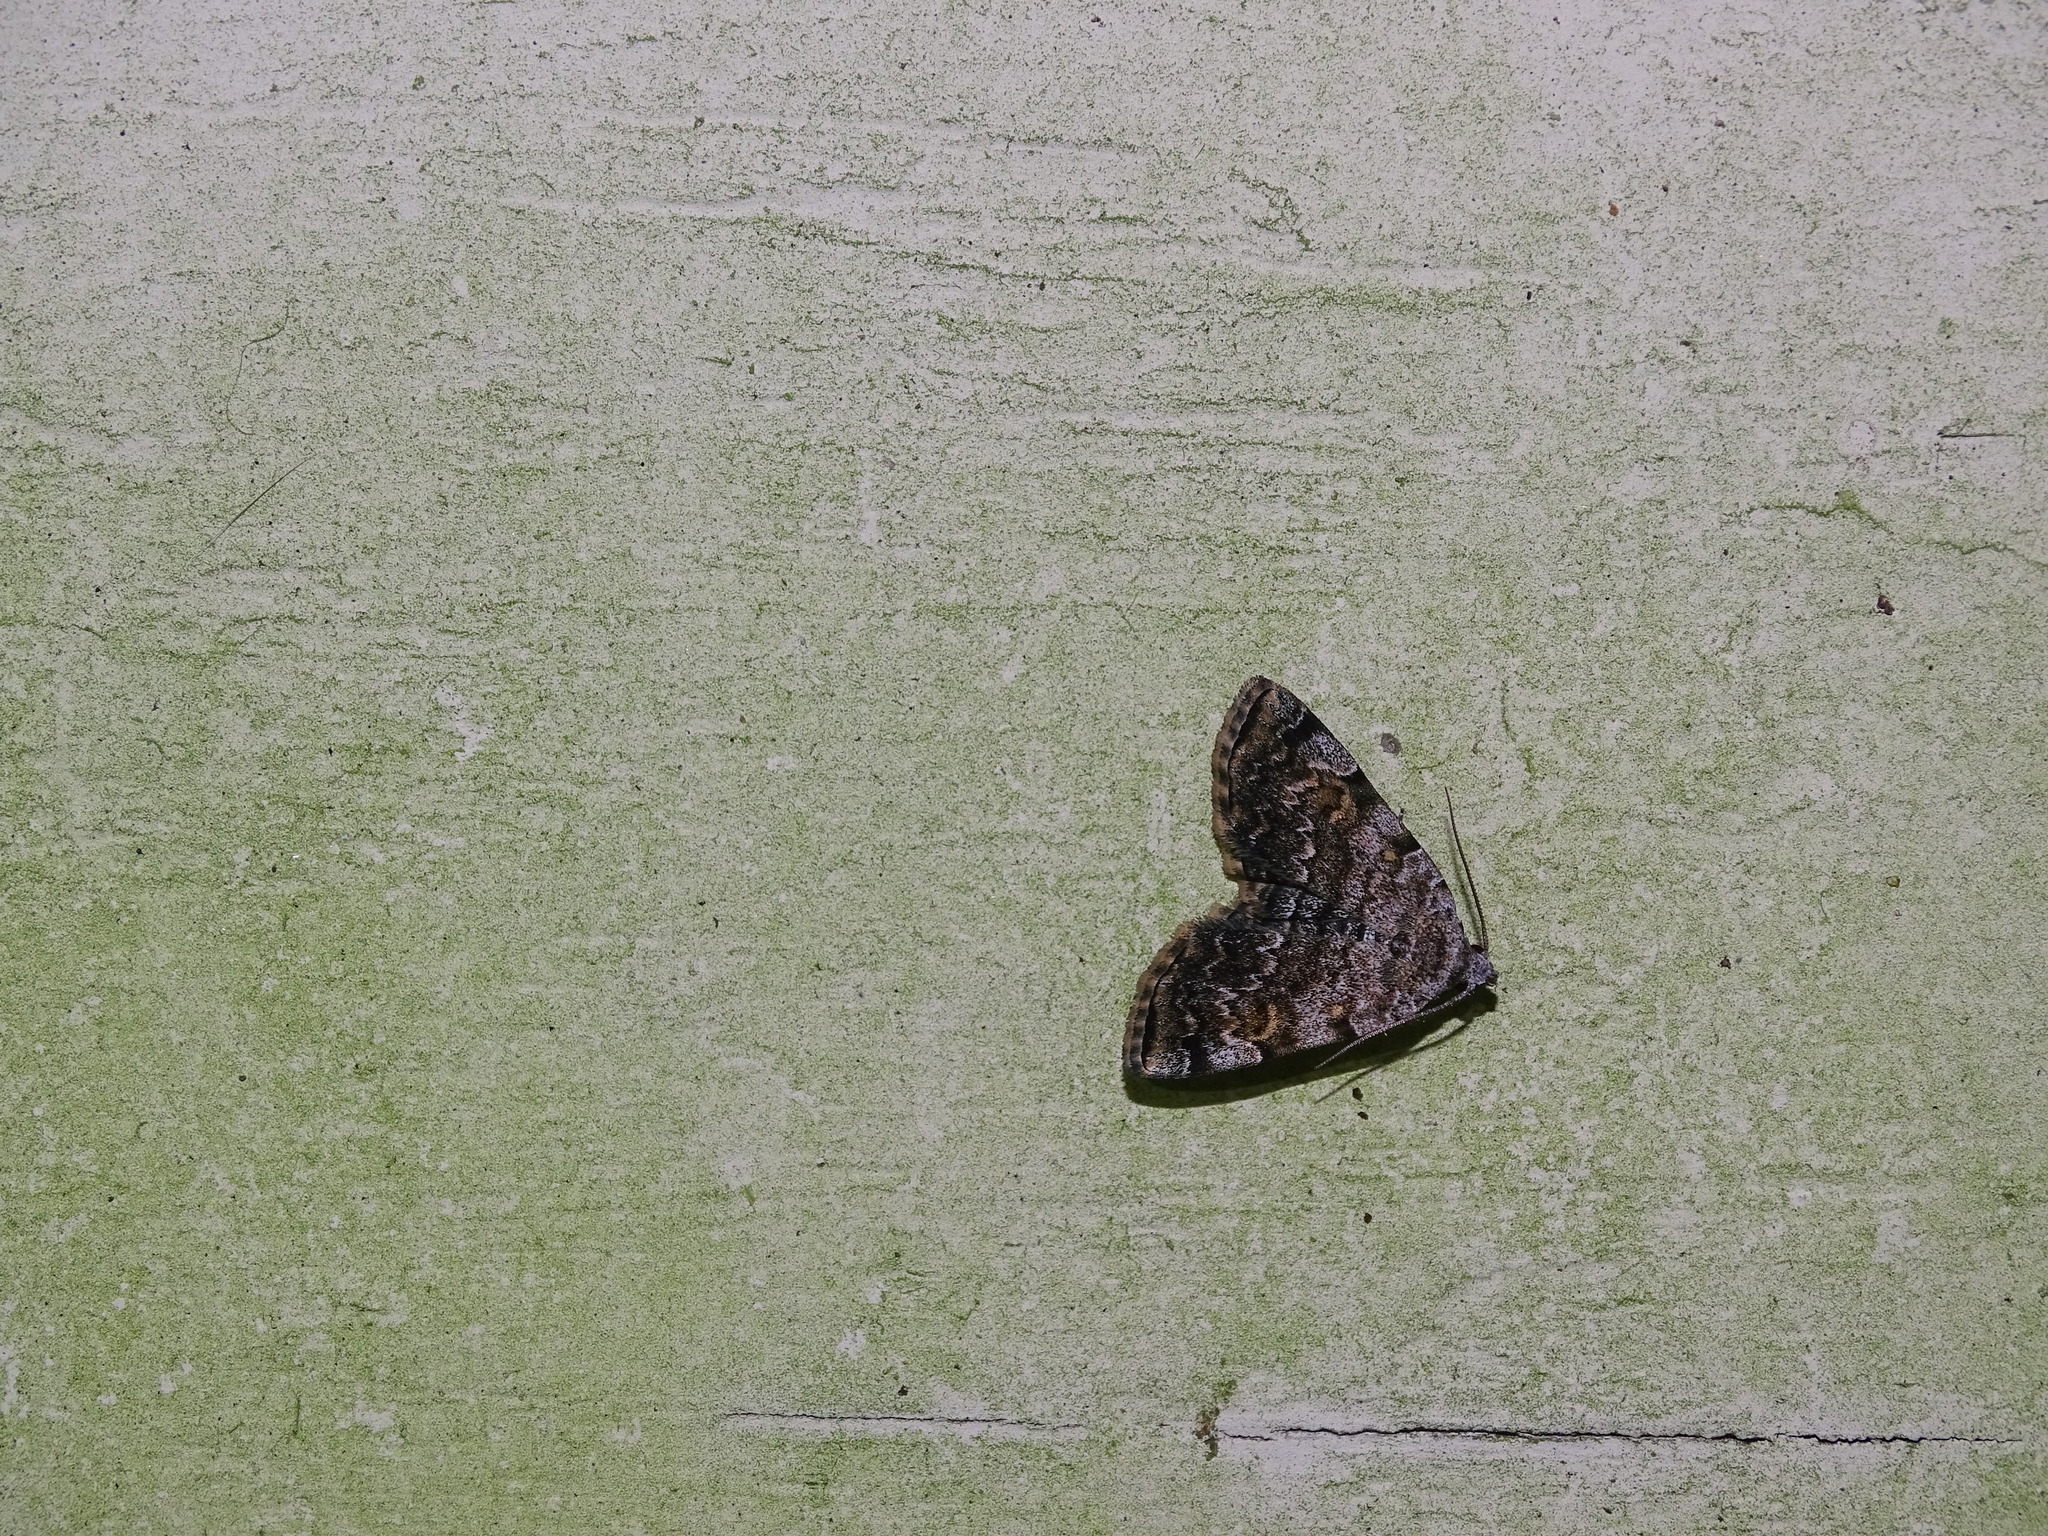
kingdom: Animalia
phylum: Arthropoda
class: Insecta
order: Lepidoptera
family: Erebidae
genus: Idia
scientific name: Idia americalis
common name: American idia moth
